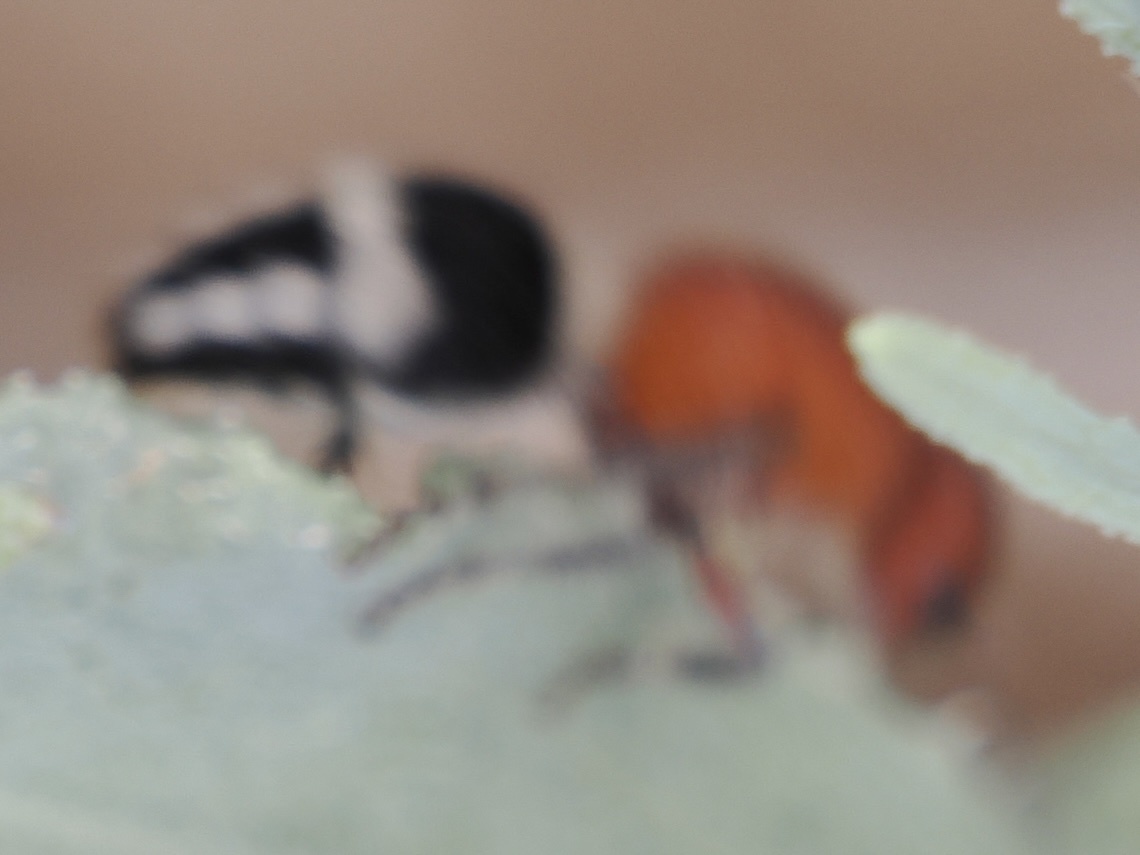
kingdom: Animalia
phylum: Arthropoda
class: Insecta
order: Hymenoptera
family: Mutillidae
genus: Timulla
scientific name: Timulla
